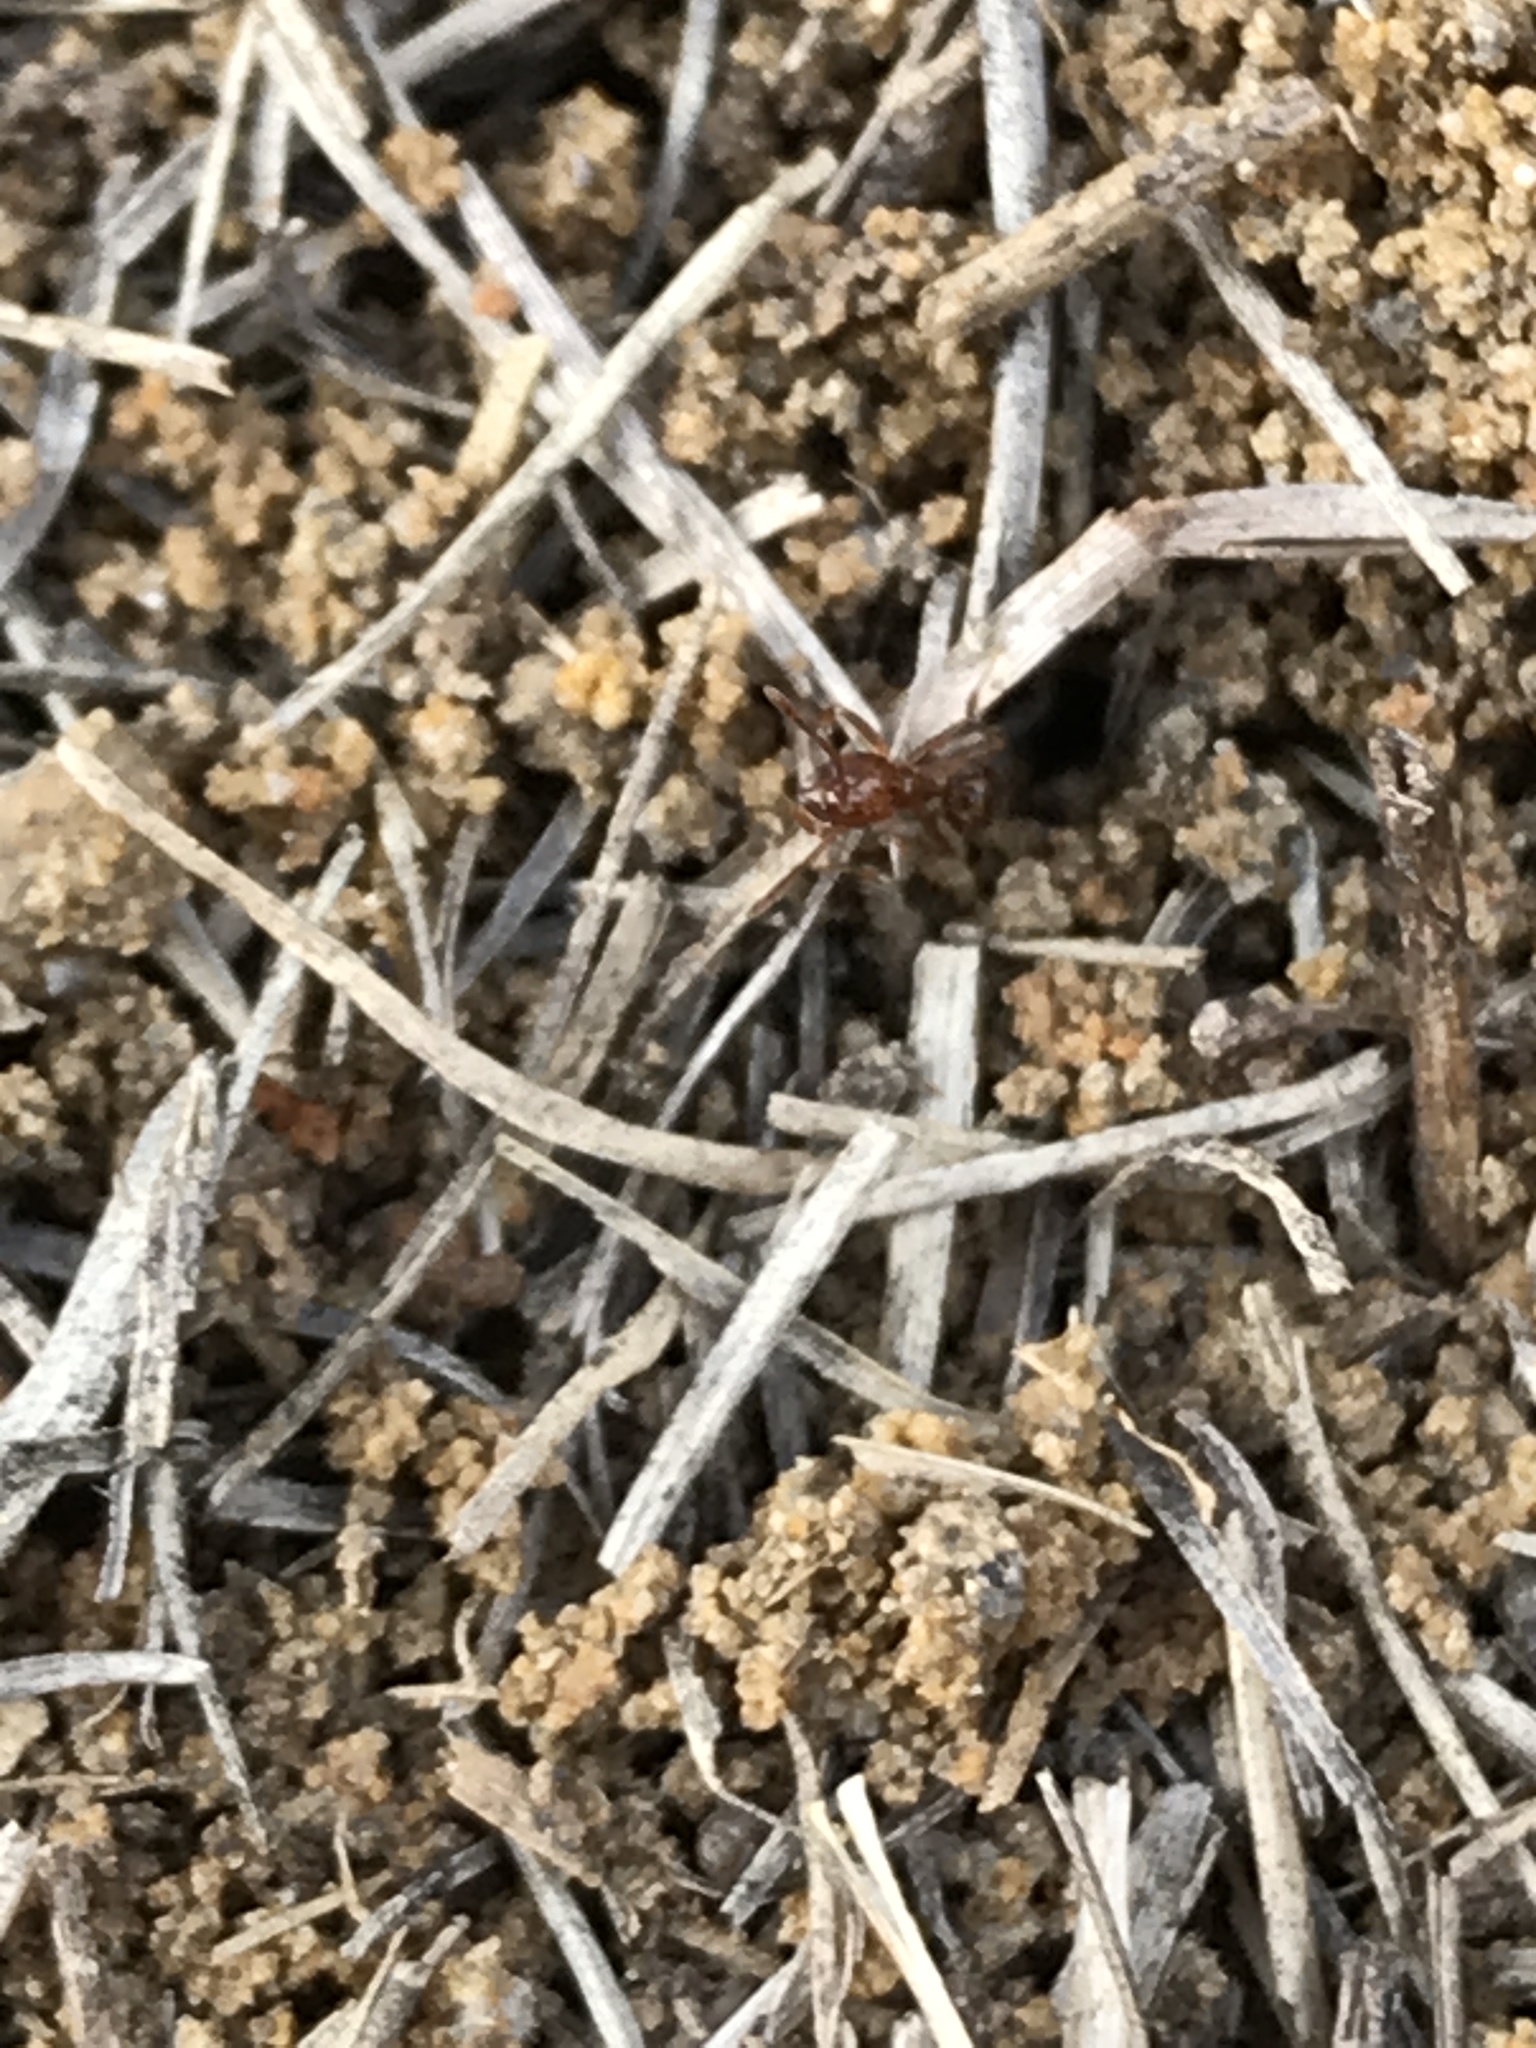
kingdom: Animalia
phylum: Arthropoda
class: Insecta
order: Hymenoptera
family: Formicidae
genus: Solenopsis
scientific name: Solenopsis invicta
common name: Red imported fire ant
